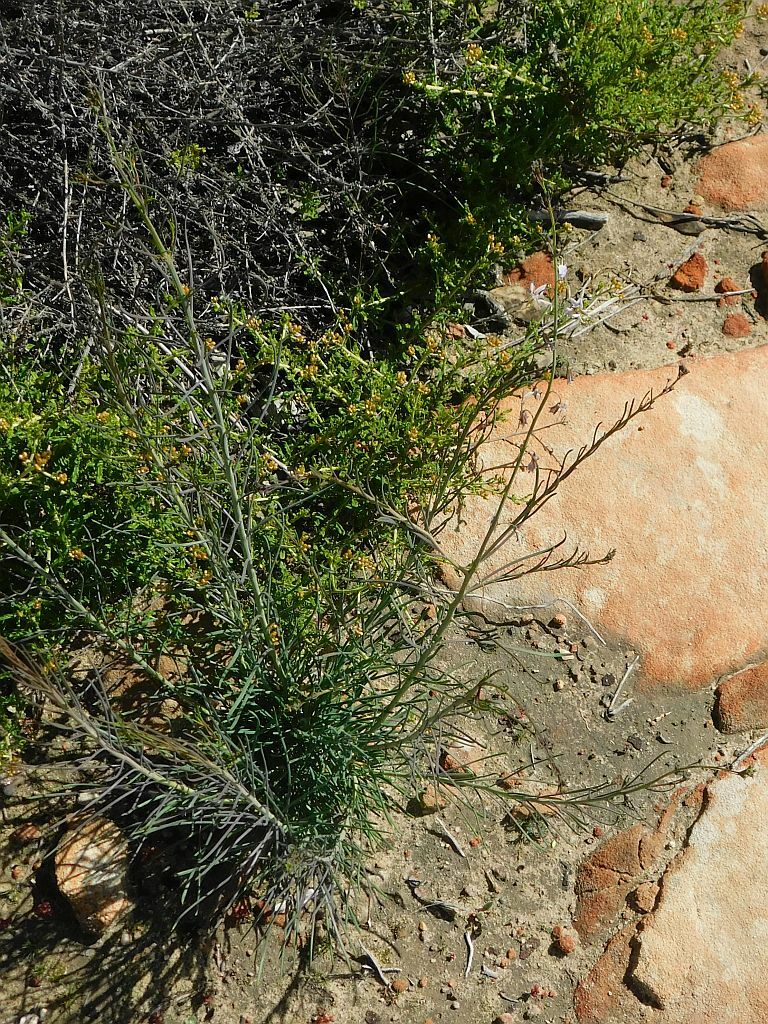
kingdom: Plantae
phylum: Tracheophyta
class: Magnoliopsida
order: Brassicales
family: Brassicaceae
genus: Heliophila
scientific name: Heliophila cornuta
